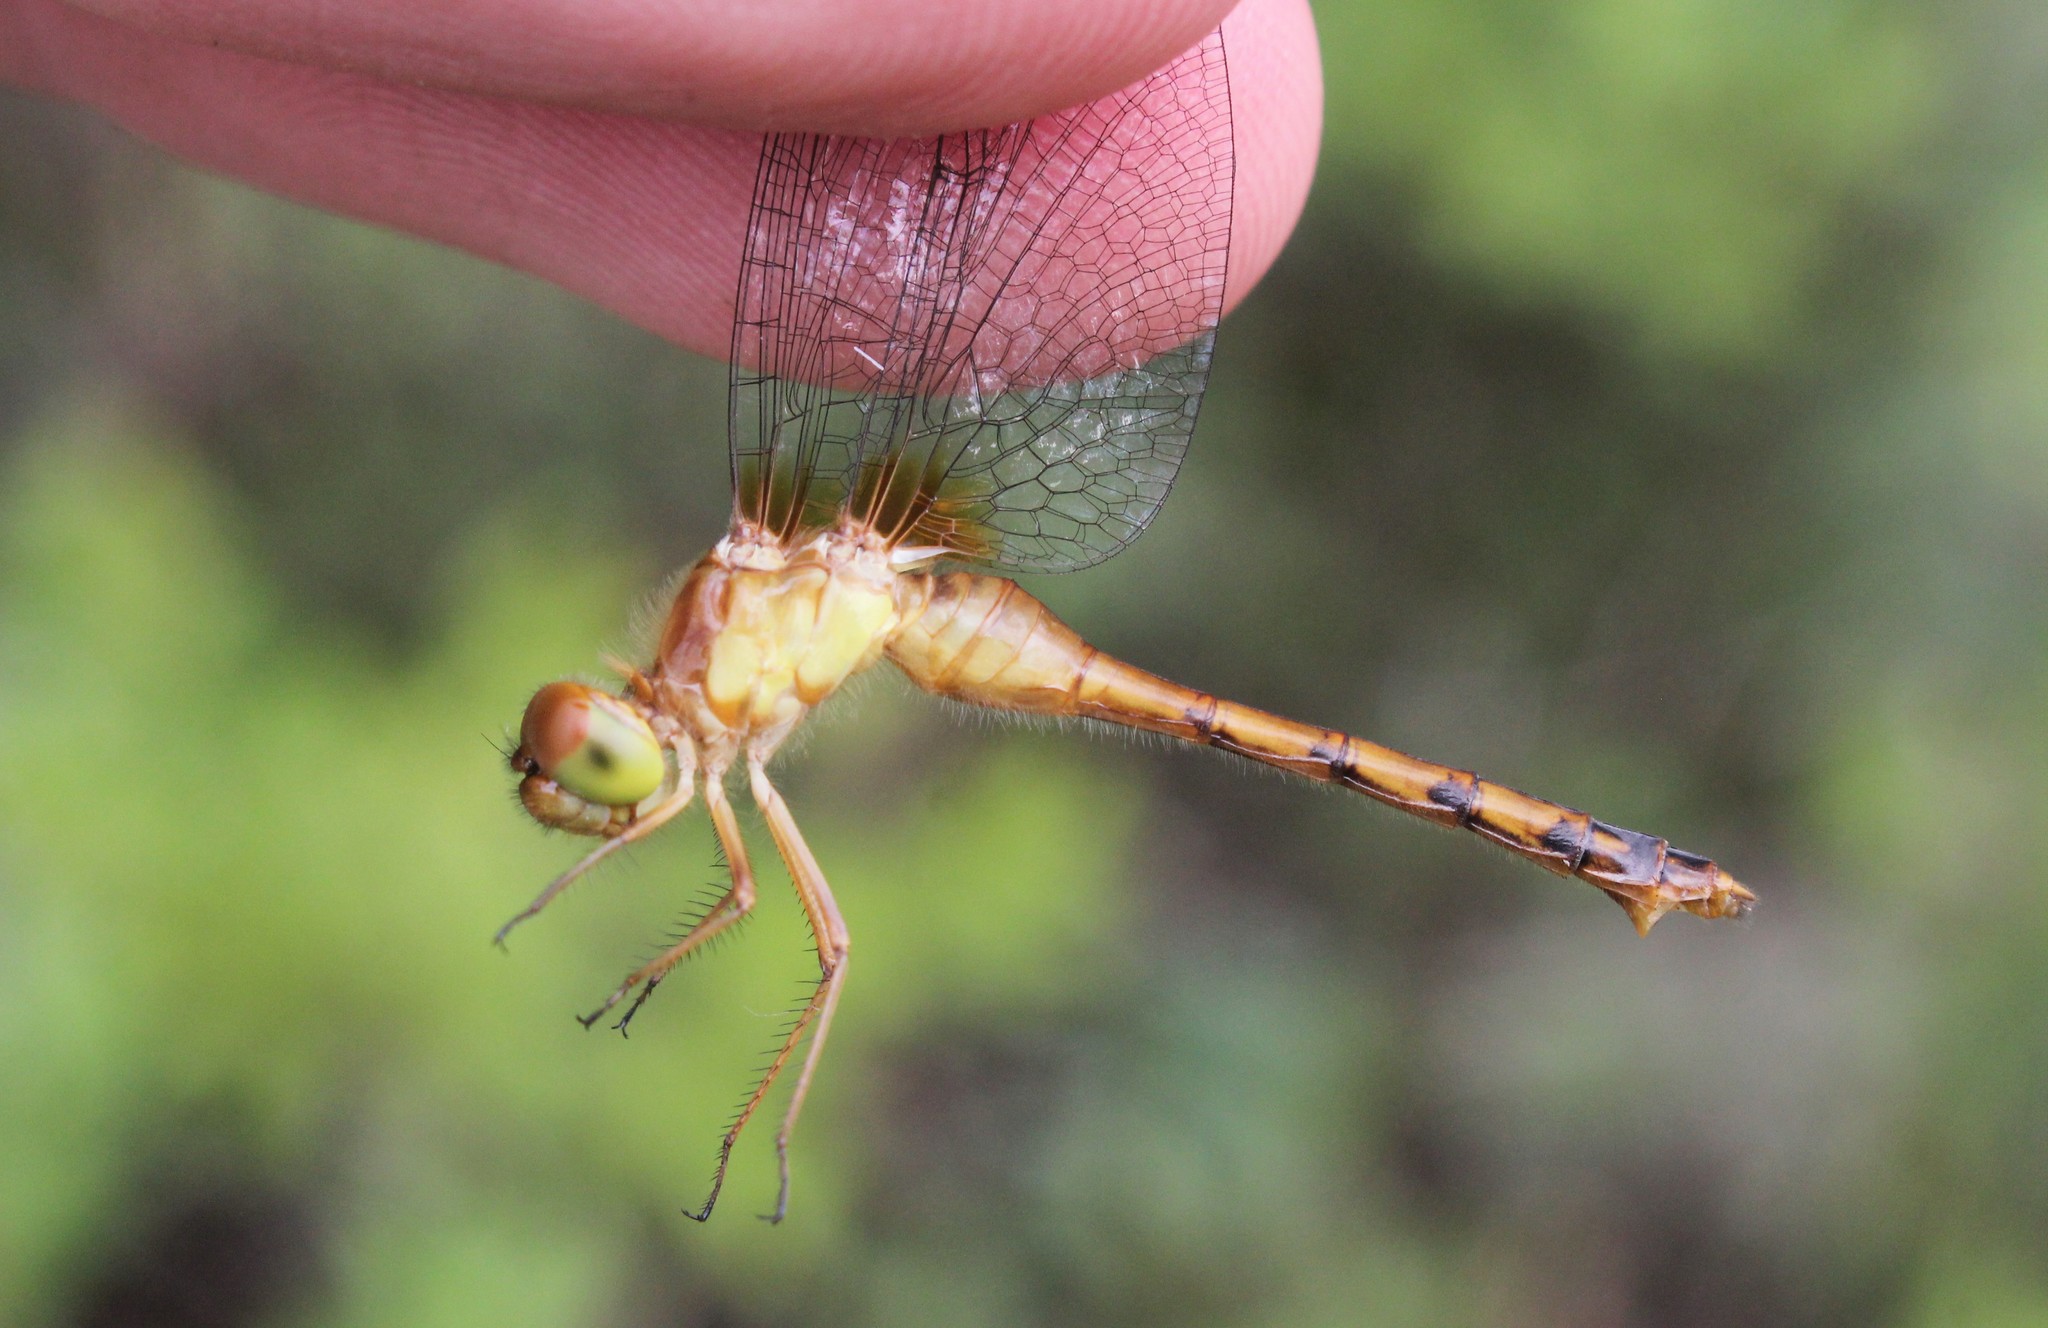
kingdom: Animalia
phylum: Arthropoda
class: Insecta
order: Odonata
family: Libellulidae
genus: Sympetrum
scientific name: Sympetrum vicinum
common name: Autumn meadowhawk
